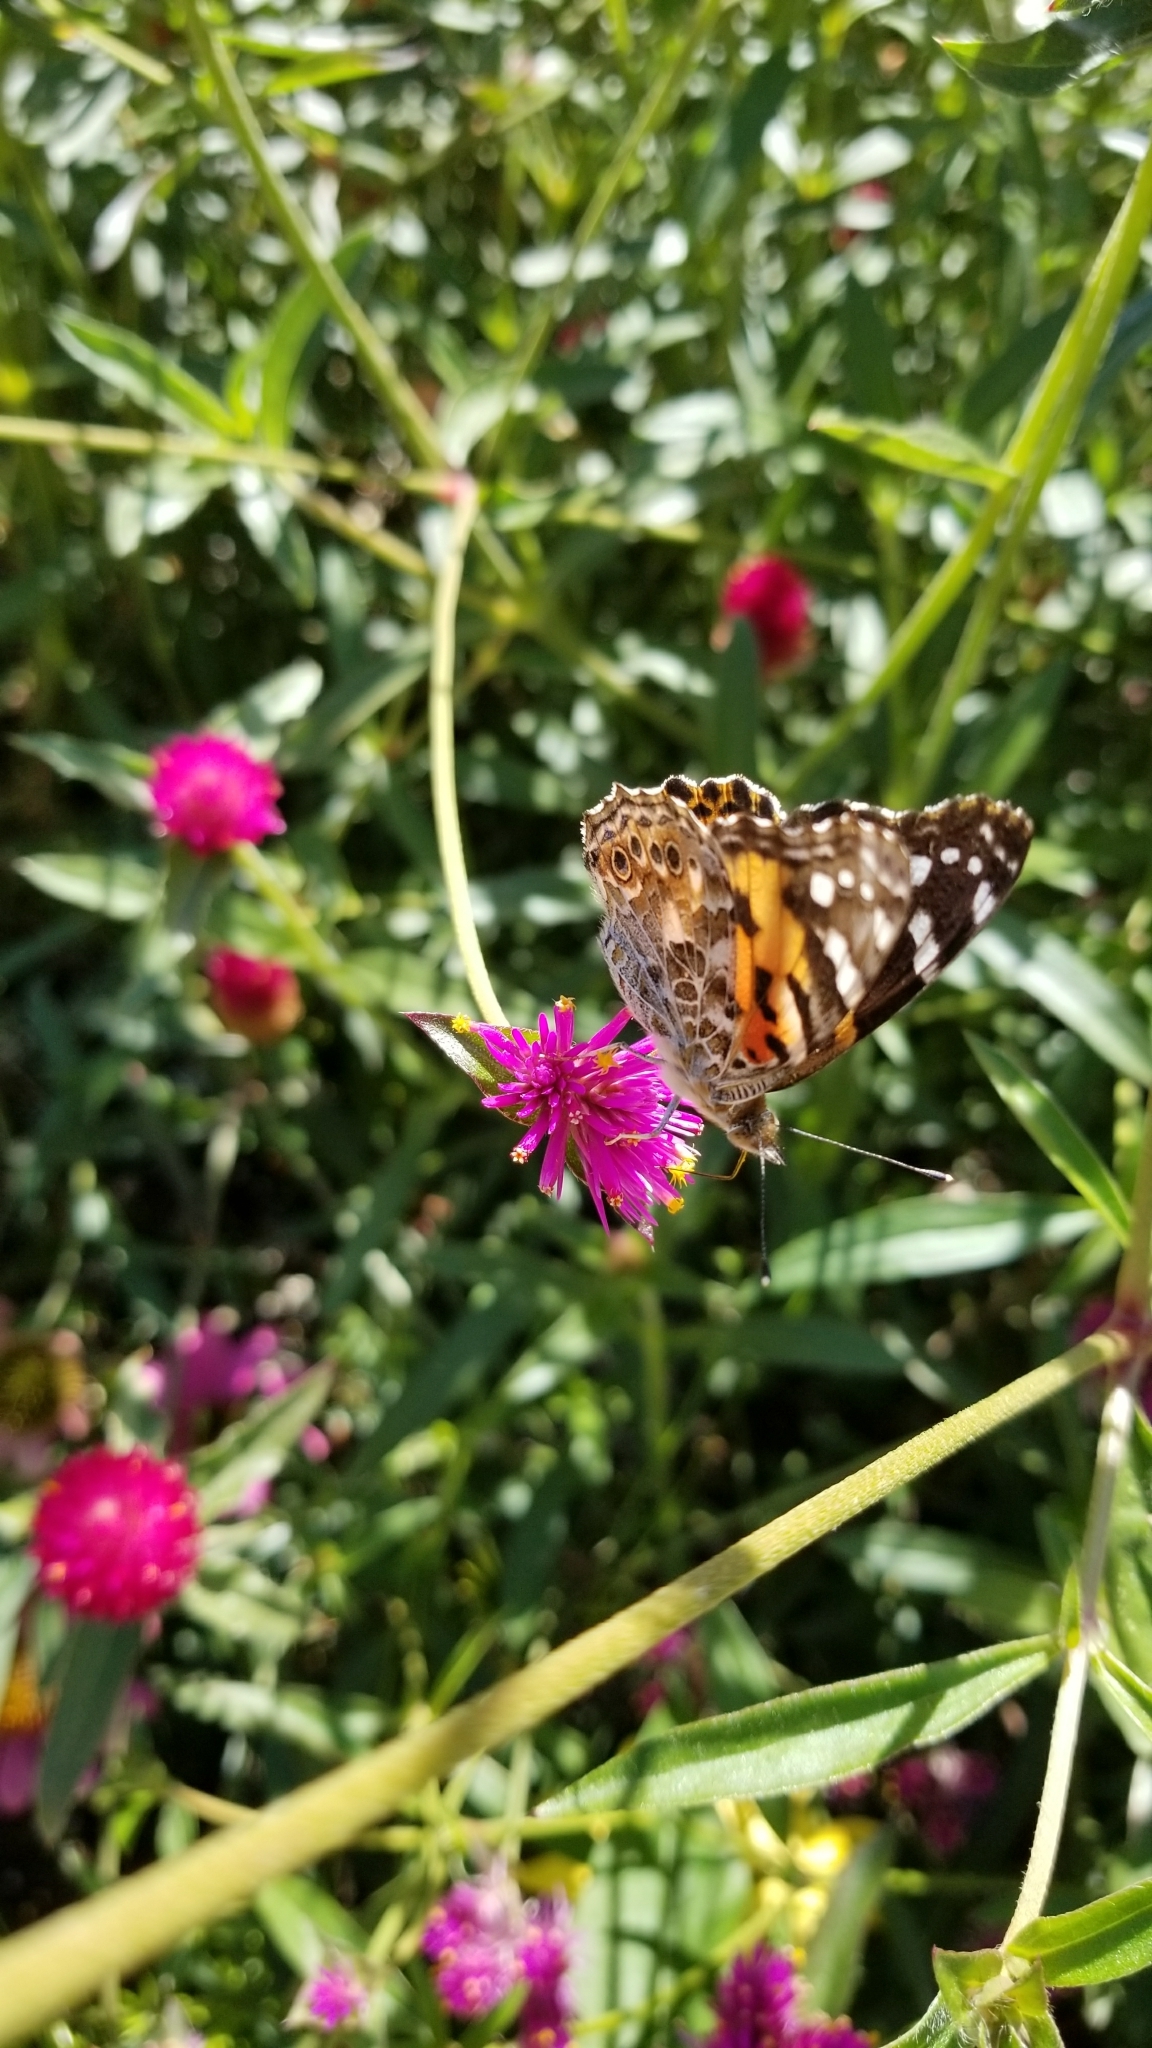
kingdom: Animalia
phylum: Arthropoda
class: Insecta
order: Lepidoptera
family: Nymphalidae
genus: Vanessa
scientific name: Vanessa cardui
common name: Painted lady
